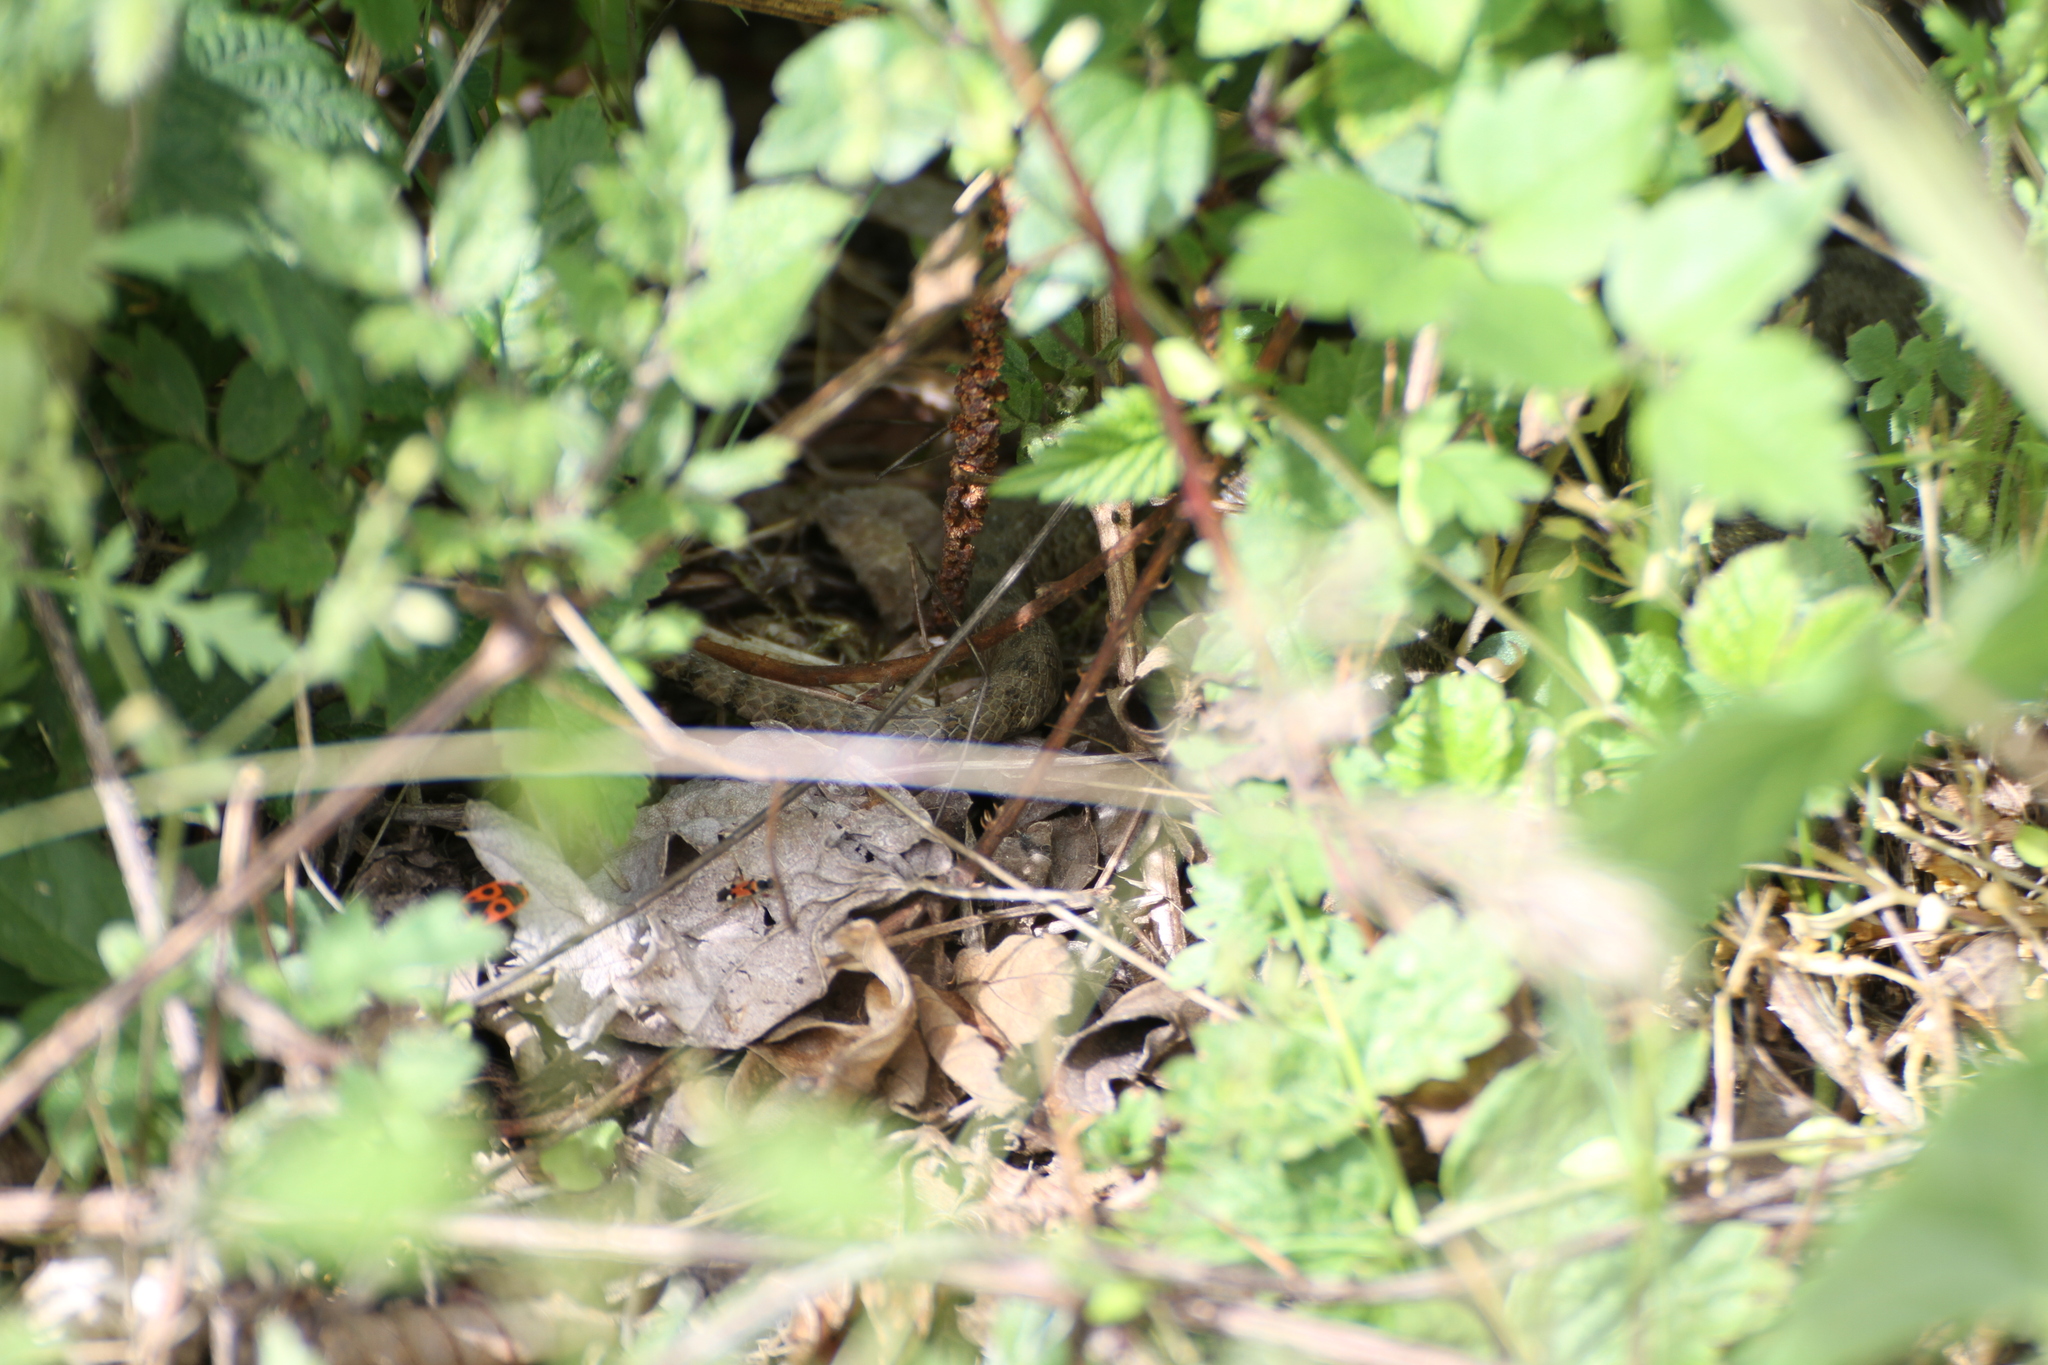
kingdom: Animalia
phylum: Chordata
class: Squamata
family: Colubridae
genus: Natrix
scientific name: Natrix maura
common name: Viperine water snake
